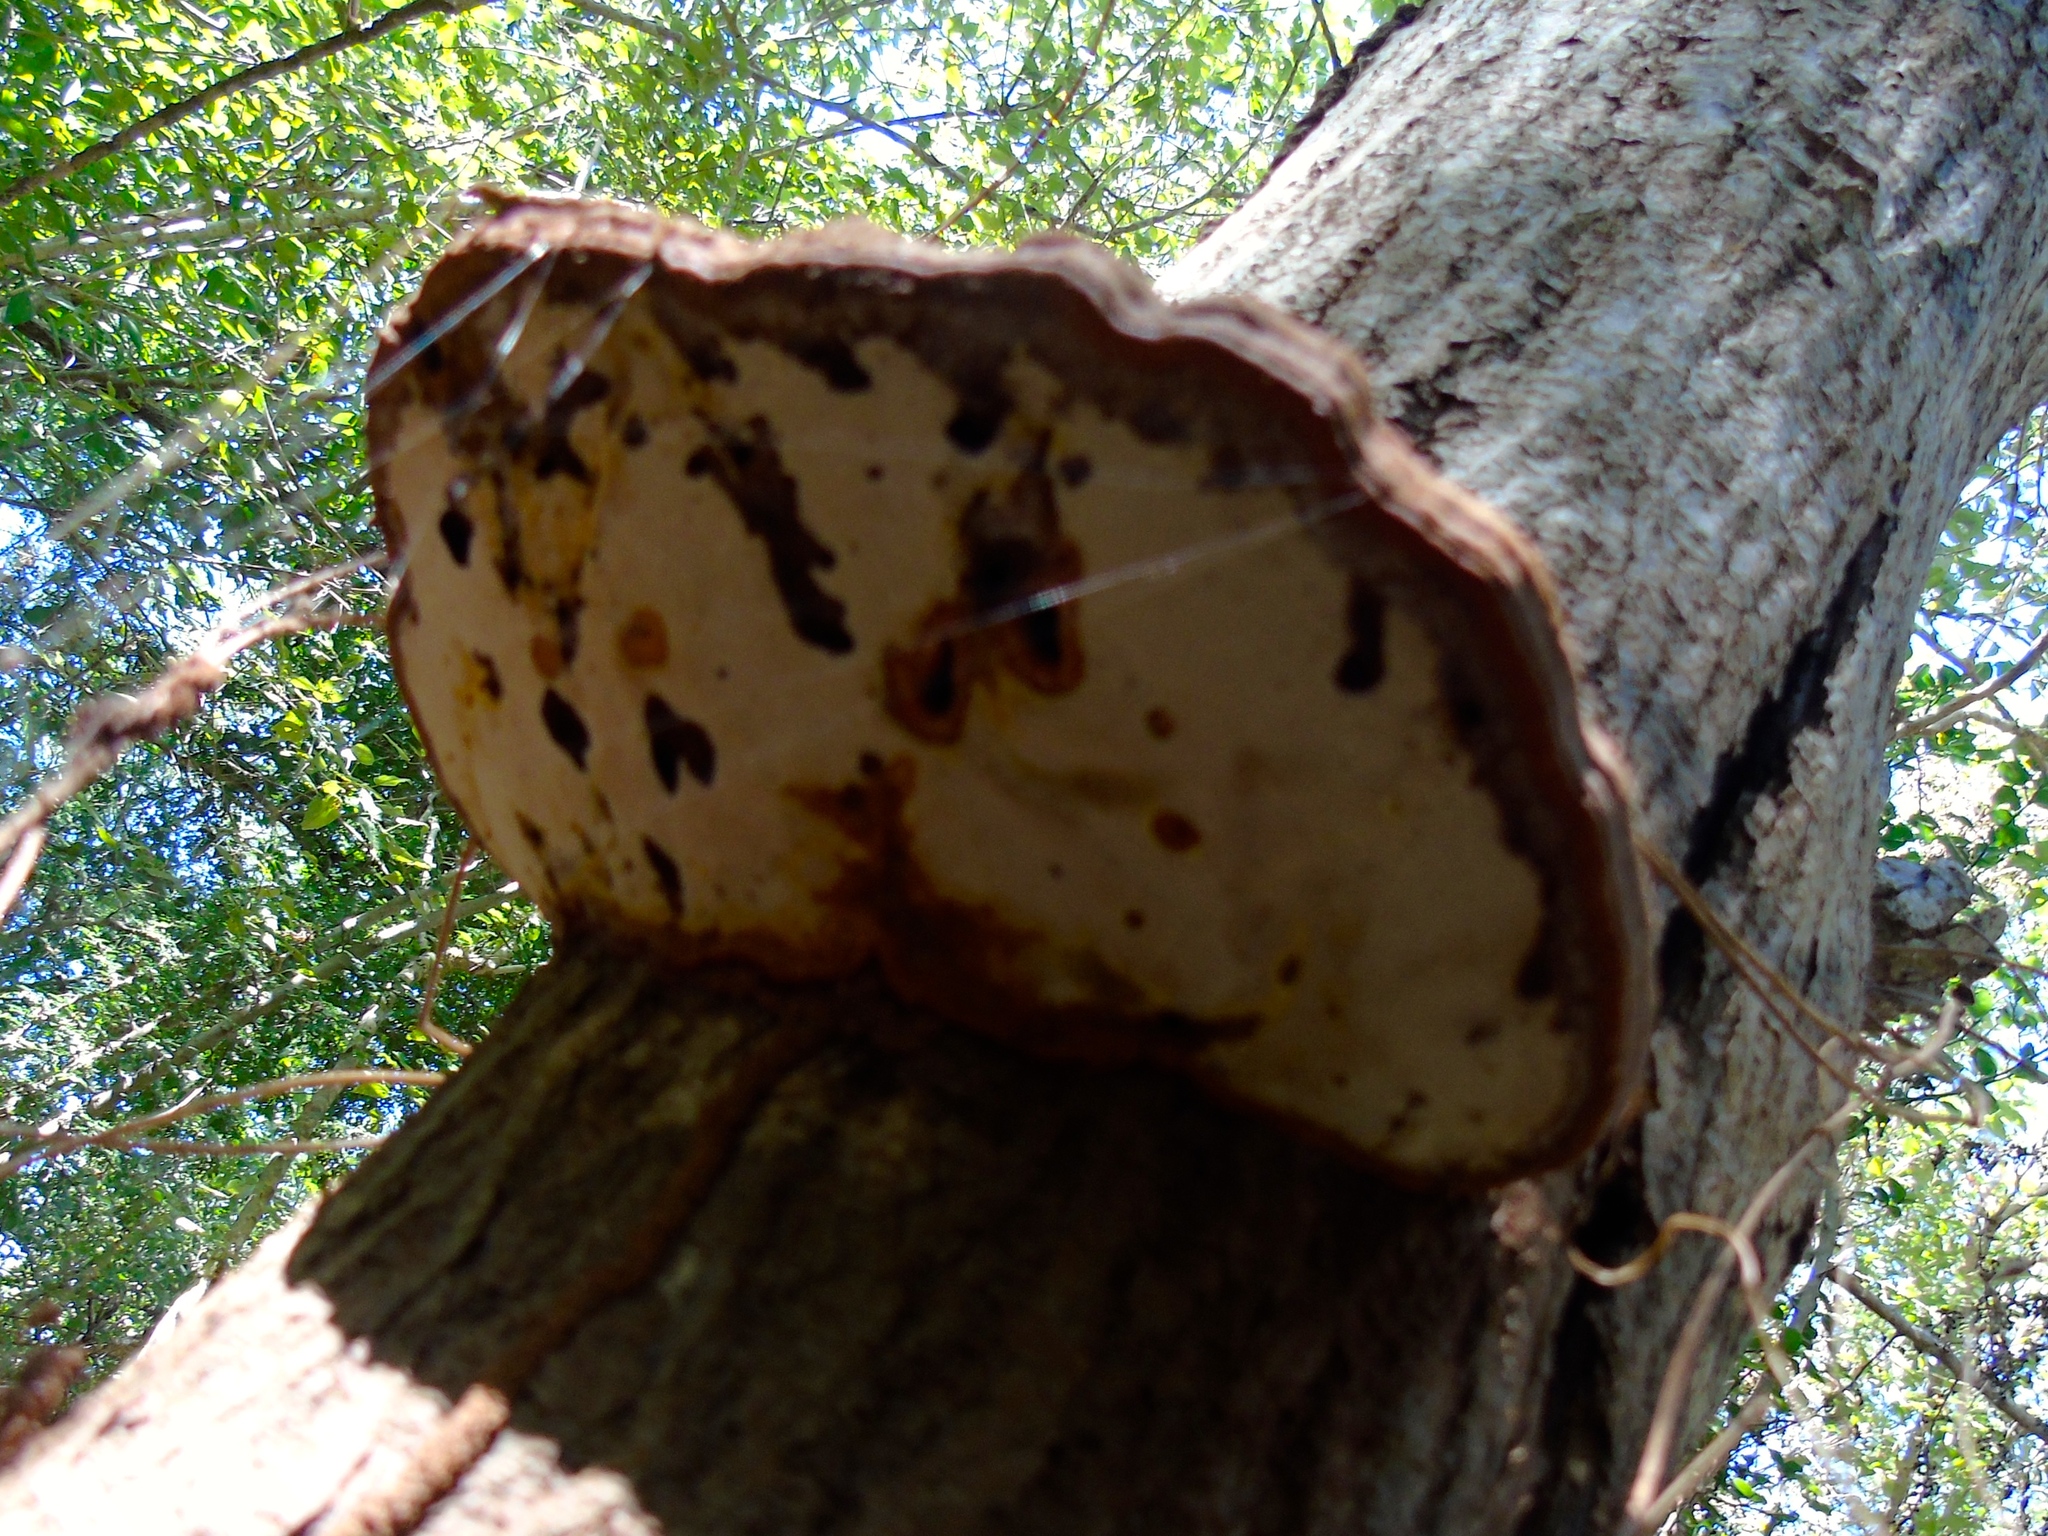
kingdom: Fungi
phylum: Basidiomycota
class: Agaricomycetes
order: Polyporales
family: Polyporaceae
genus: Ganoderma
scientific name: Ganoderma
